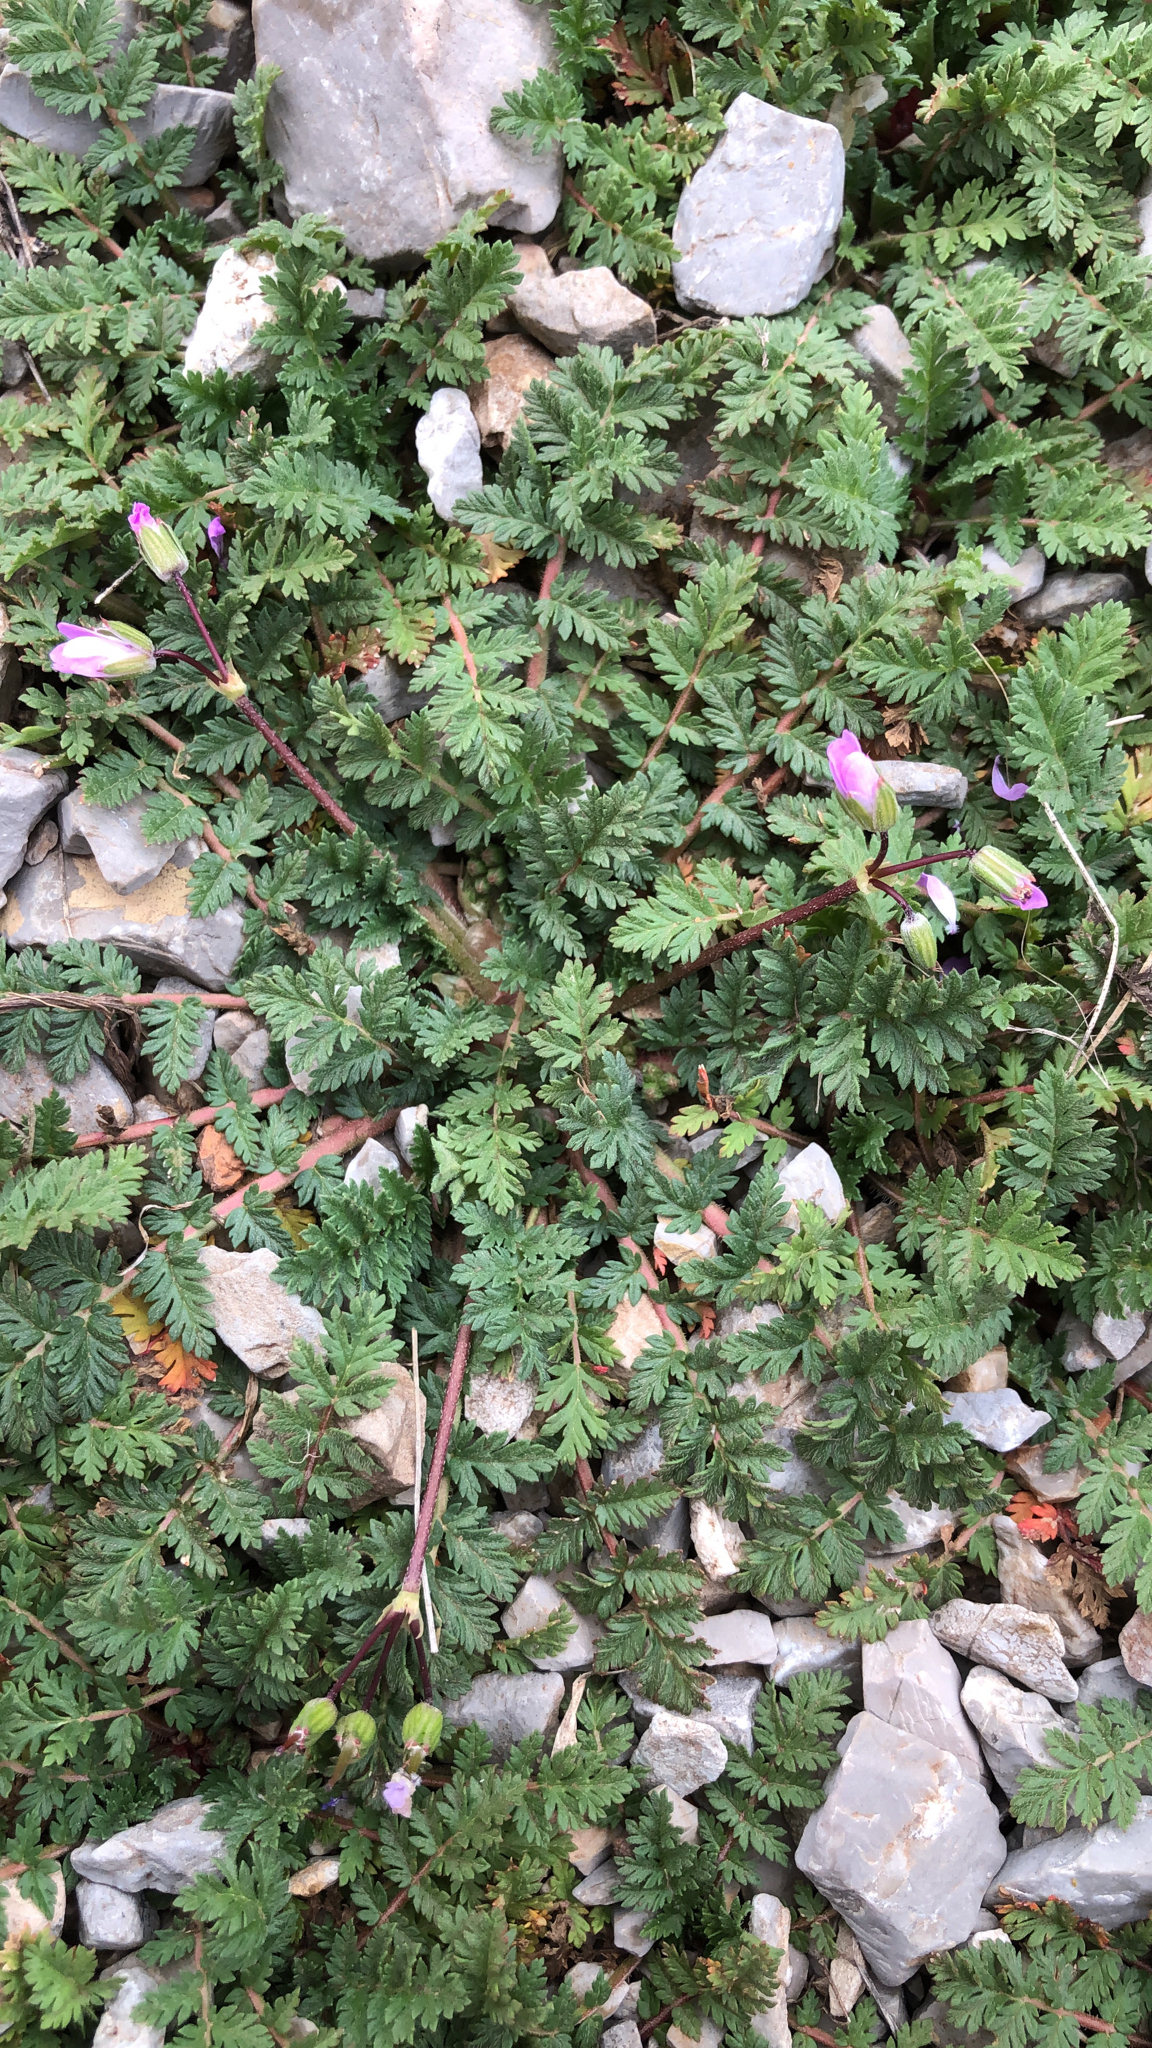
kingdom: Plantae
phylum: Tracheophyta
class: Magnoliopsida
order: Geraniales
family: Geraniaceae
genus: Erodium
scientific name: Erodium cicutarium
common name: Common stork's-bill
